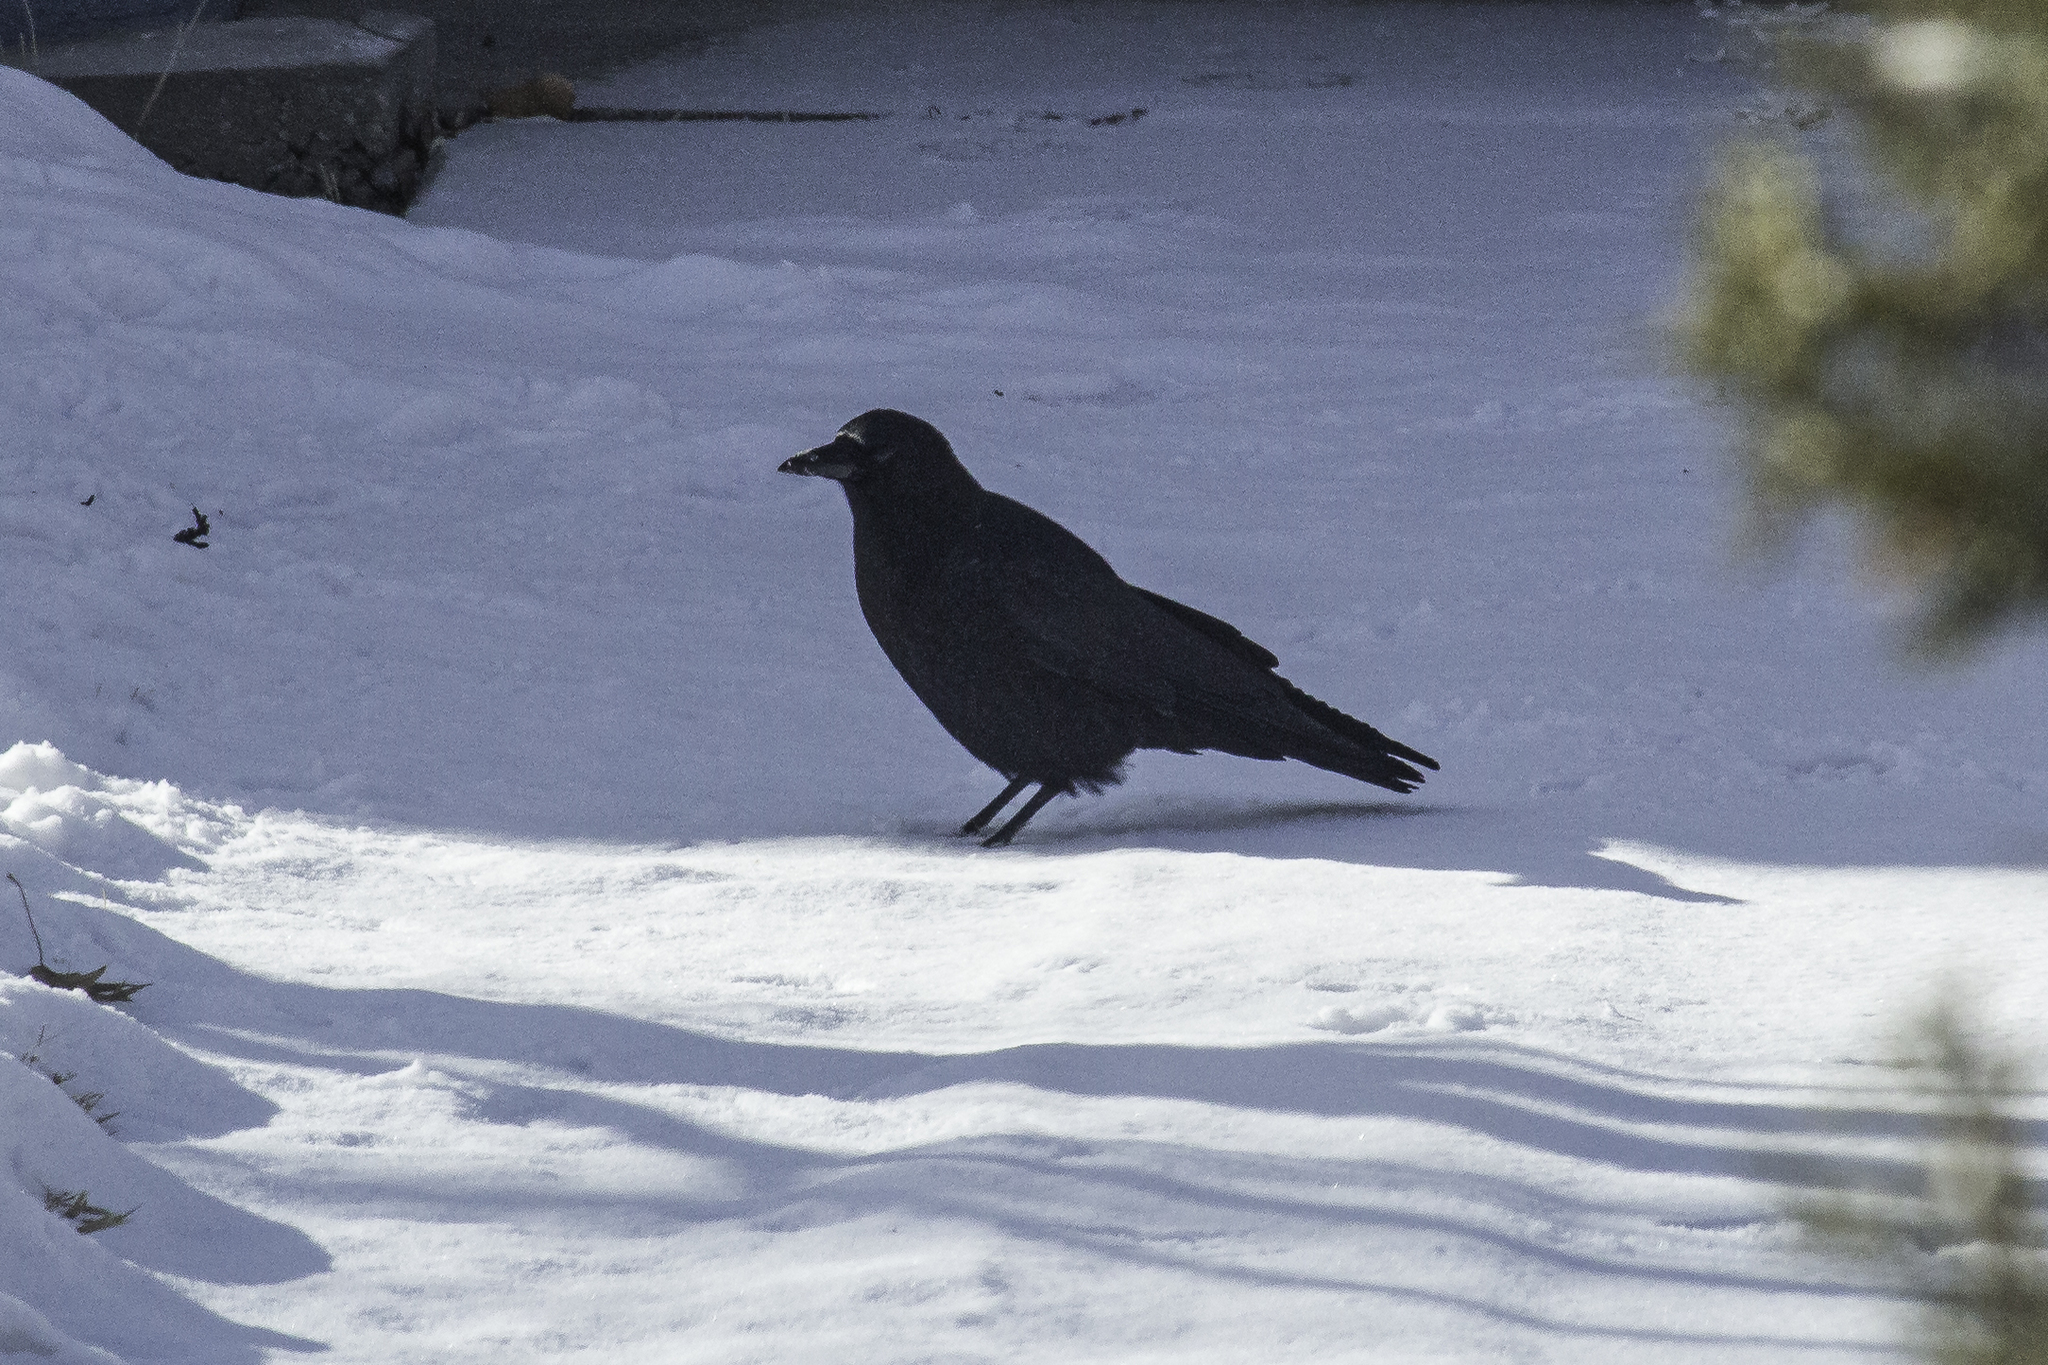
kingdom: Animalia
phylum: Chordata
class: Aves
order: Passeriformes
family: Corvidae
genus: Corvus
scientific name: Corvus brachyrhynchos
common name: American crow
